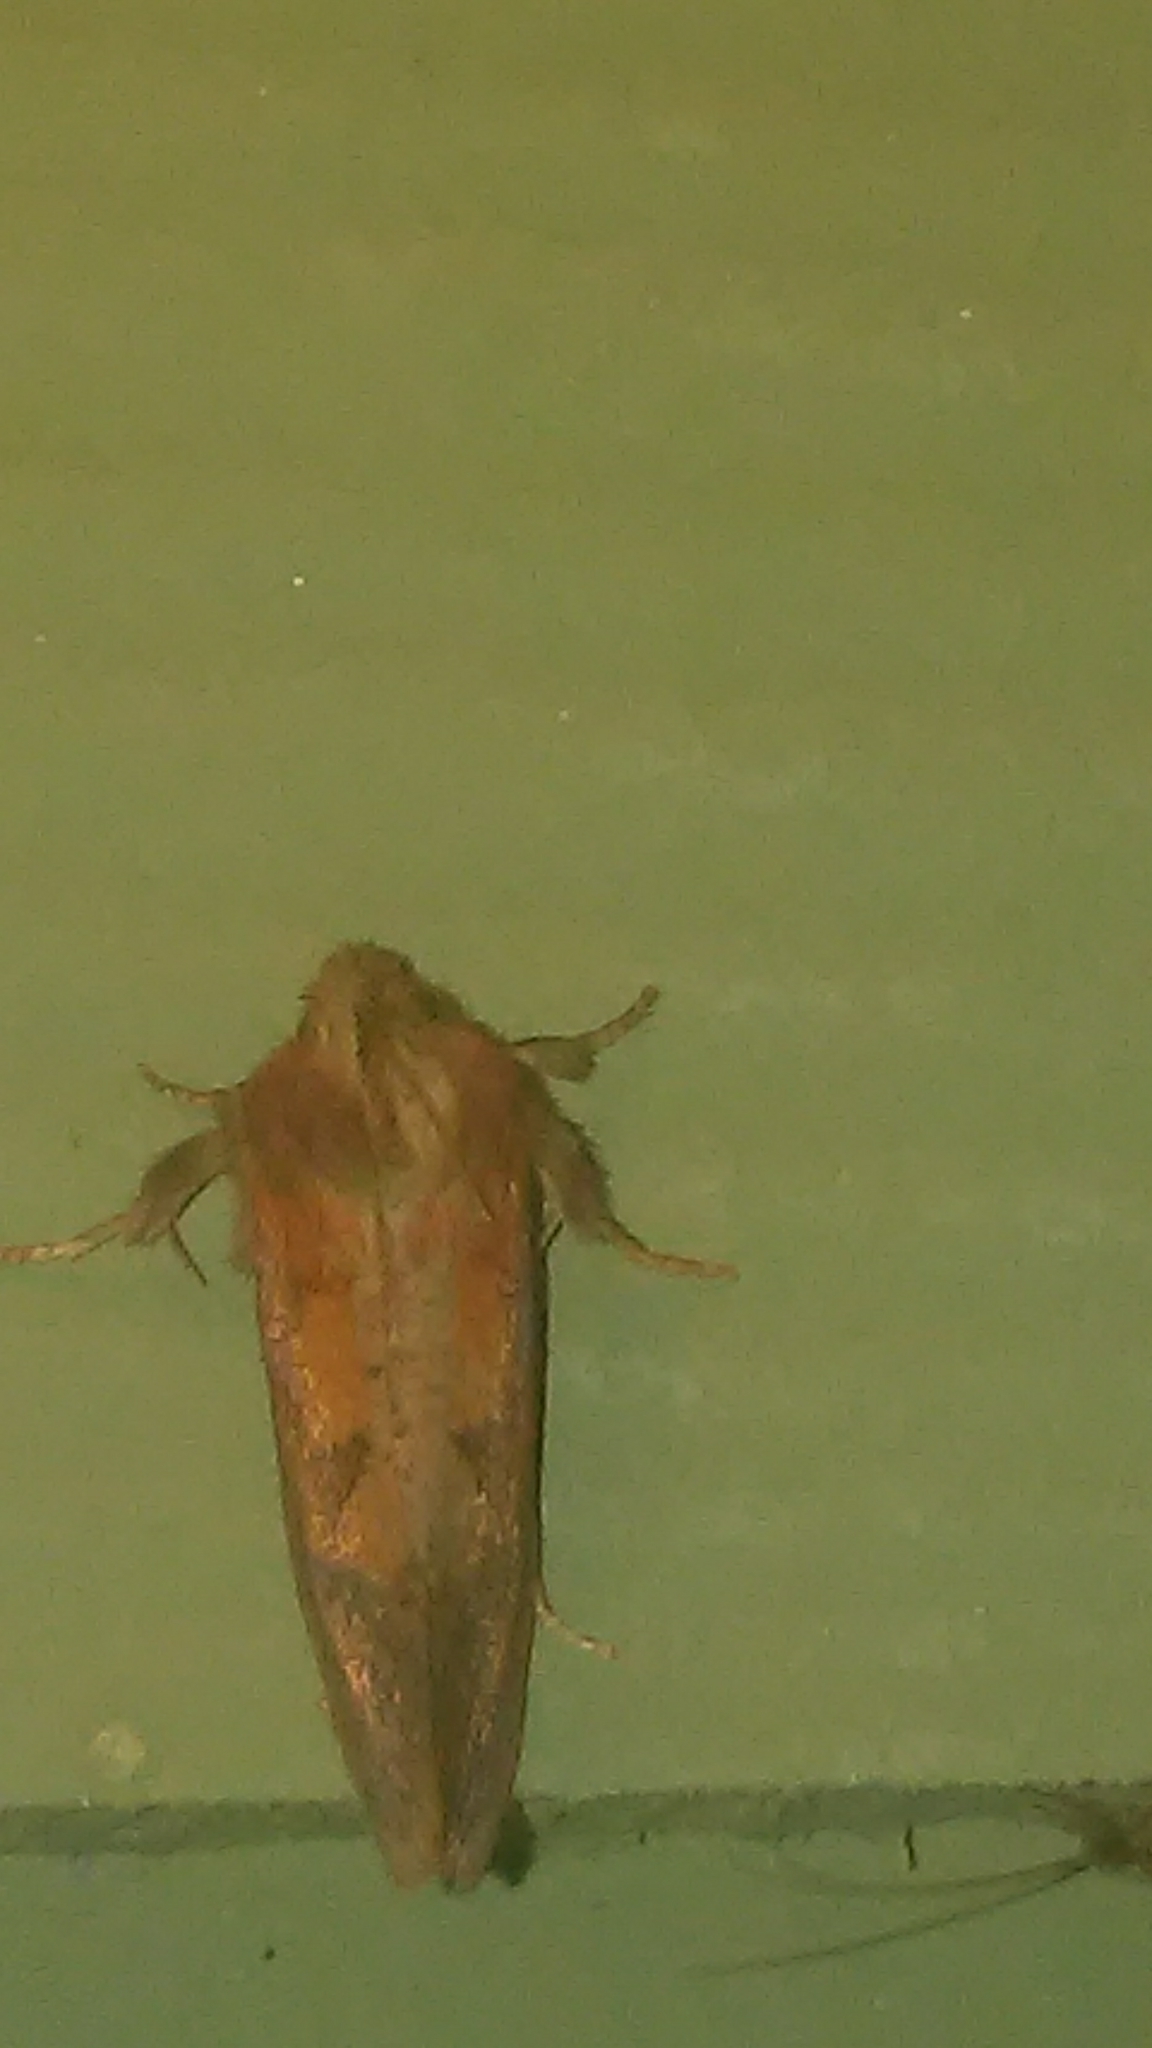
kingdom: Animalia
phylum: Arthropoda
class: Insecta
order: Lepidoptera
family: Tineidae
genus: Acrolophus
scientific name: Acrolophus plumifrontella
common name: Eastern grass tubeworm moth
